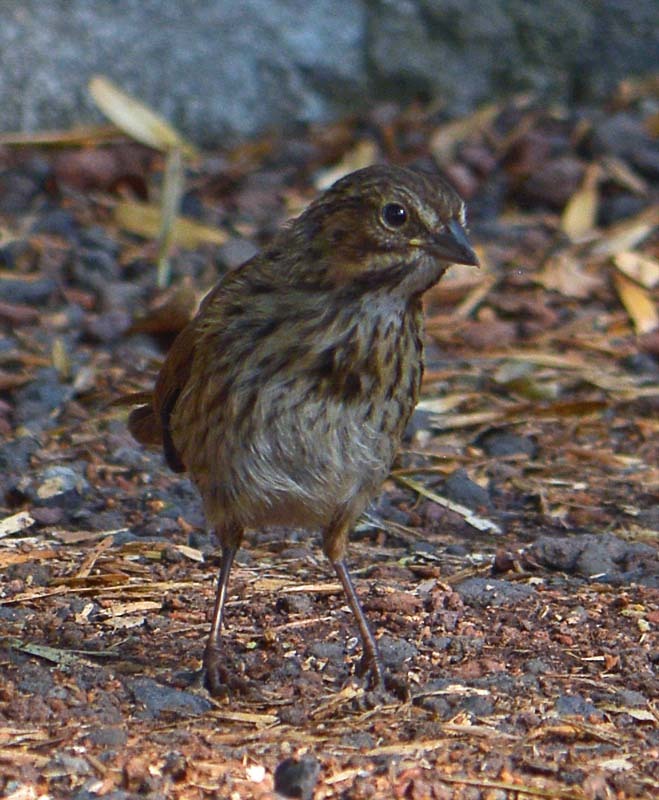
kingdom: Animalia
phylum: Chordata
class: Aves
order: Passeriformes
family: Passerellidae
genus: Melospiza
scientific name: Melospiza melodia
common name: Song sparrow
